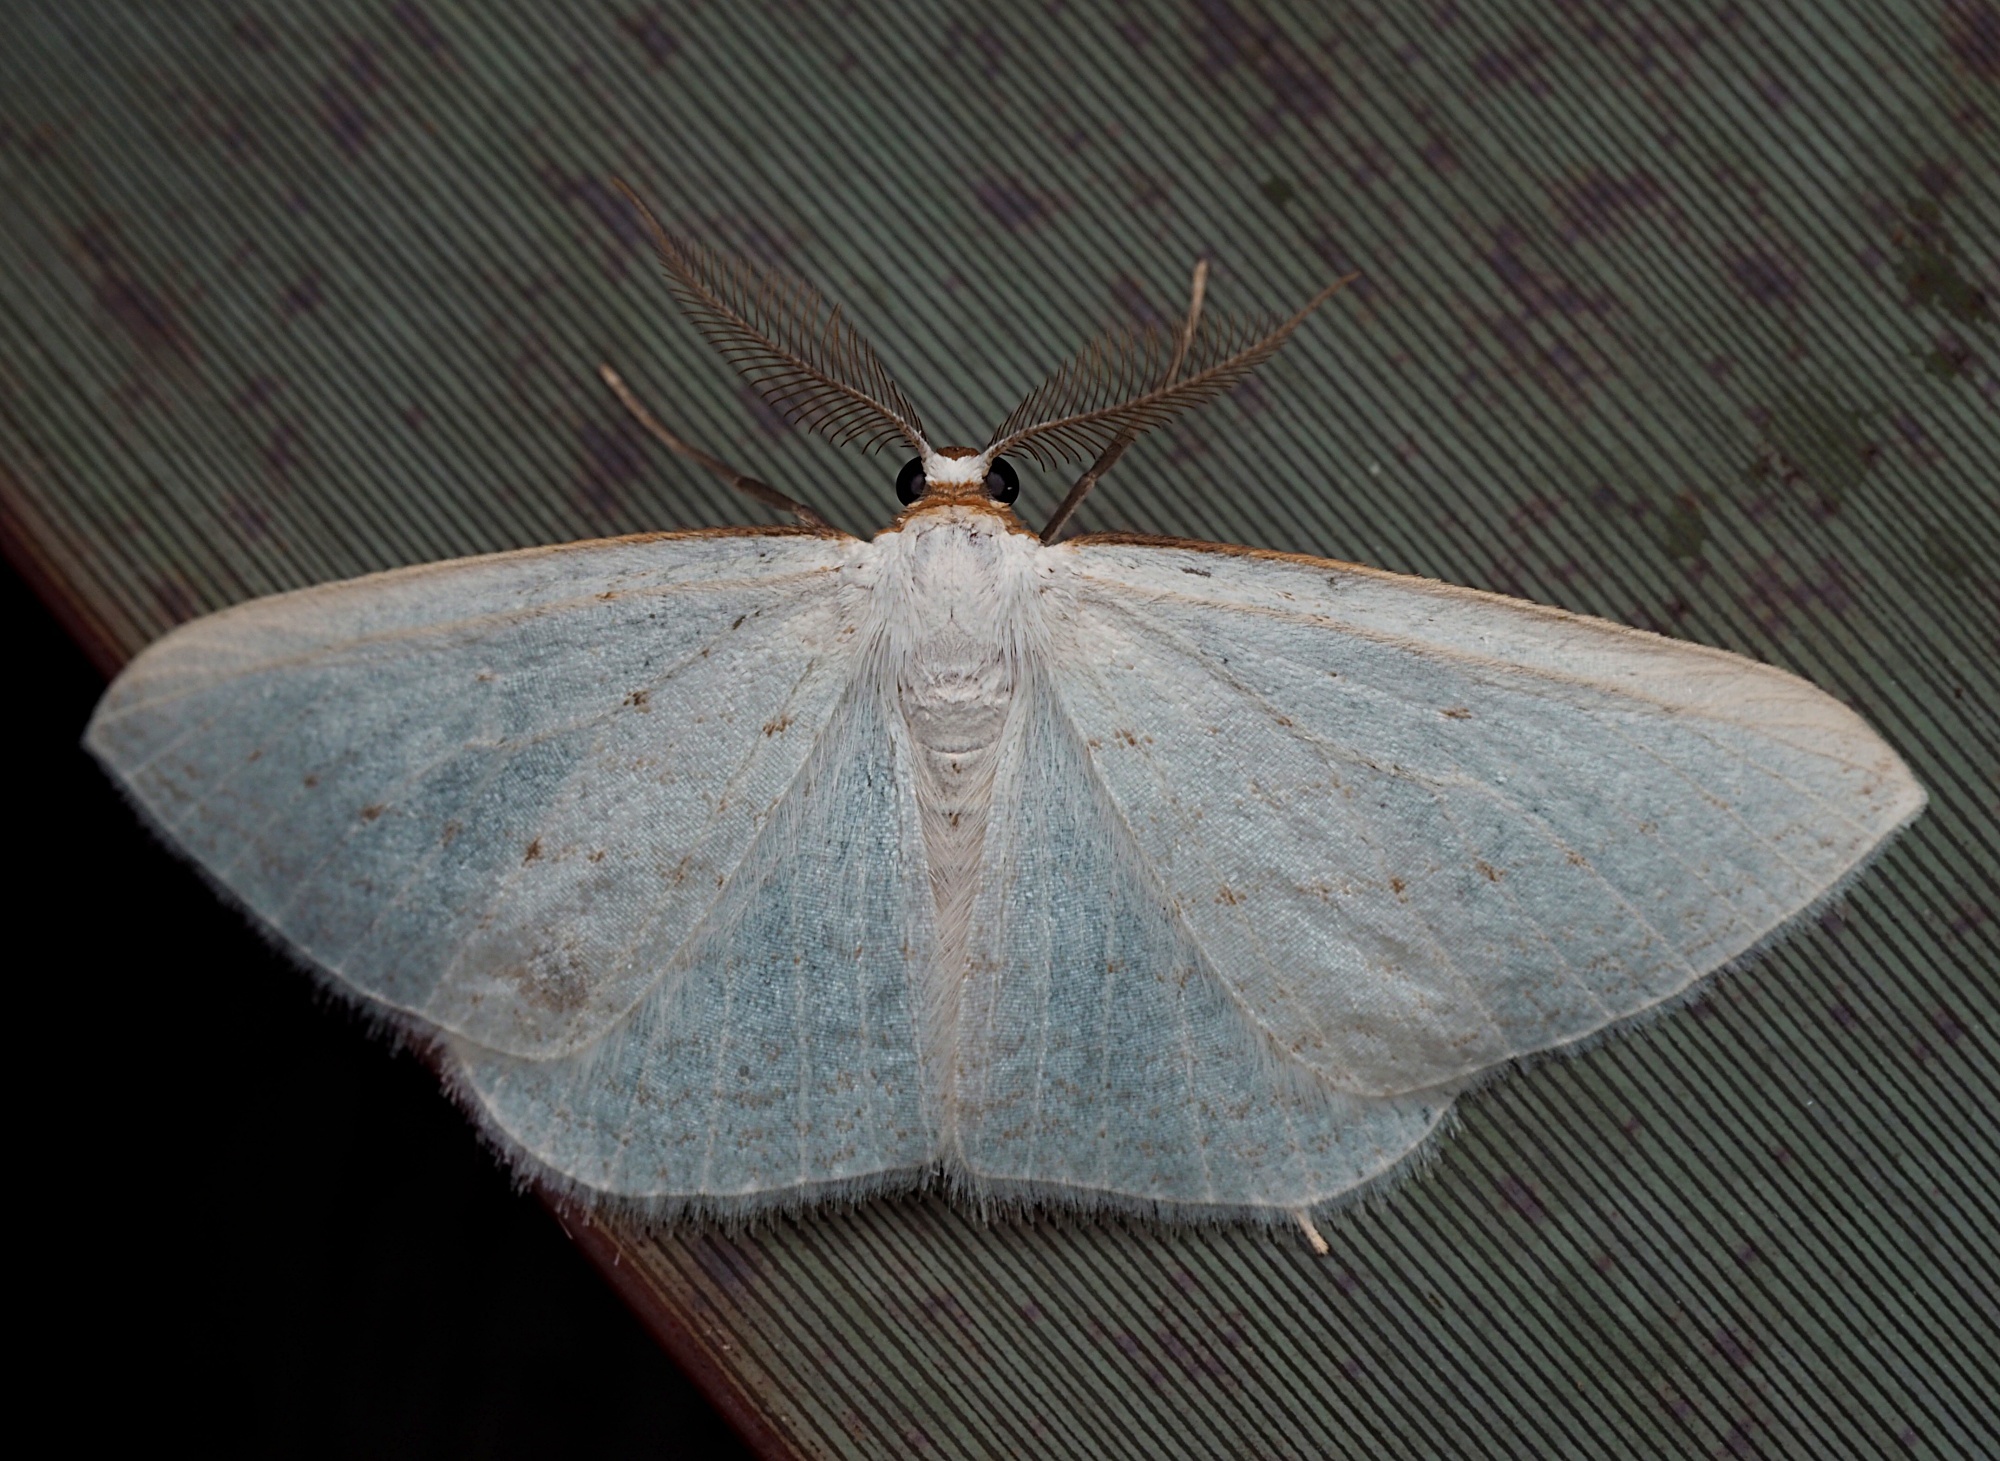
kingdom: Animalia
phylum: Arthropoda
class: Insecta
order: Lepidoptera
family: Geometridae
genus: Orthoclydon
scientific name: Orthoclydon praefectata
